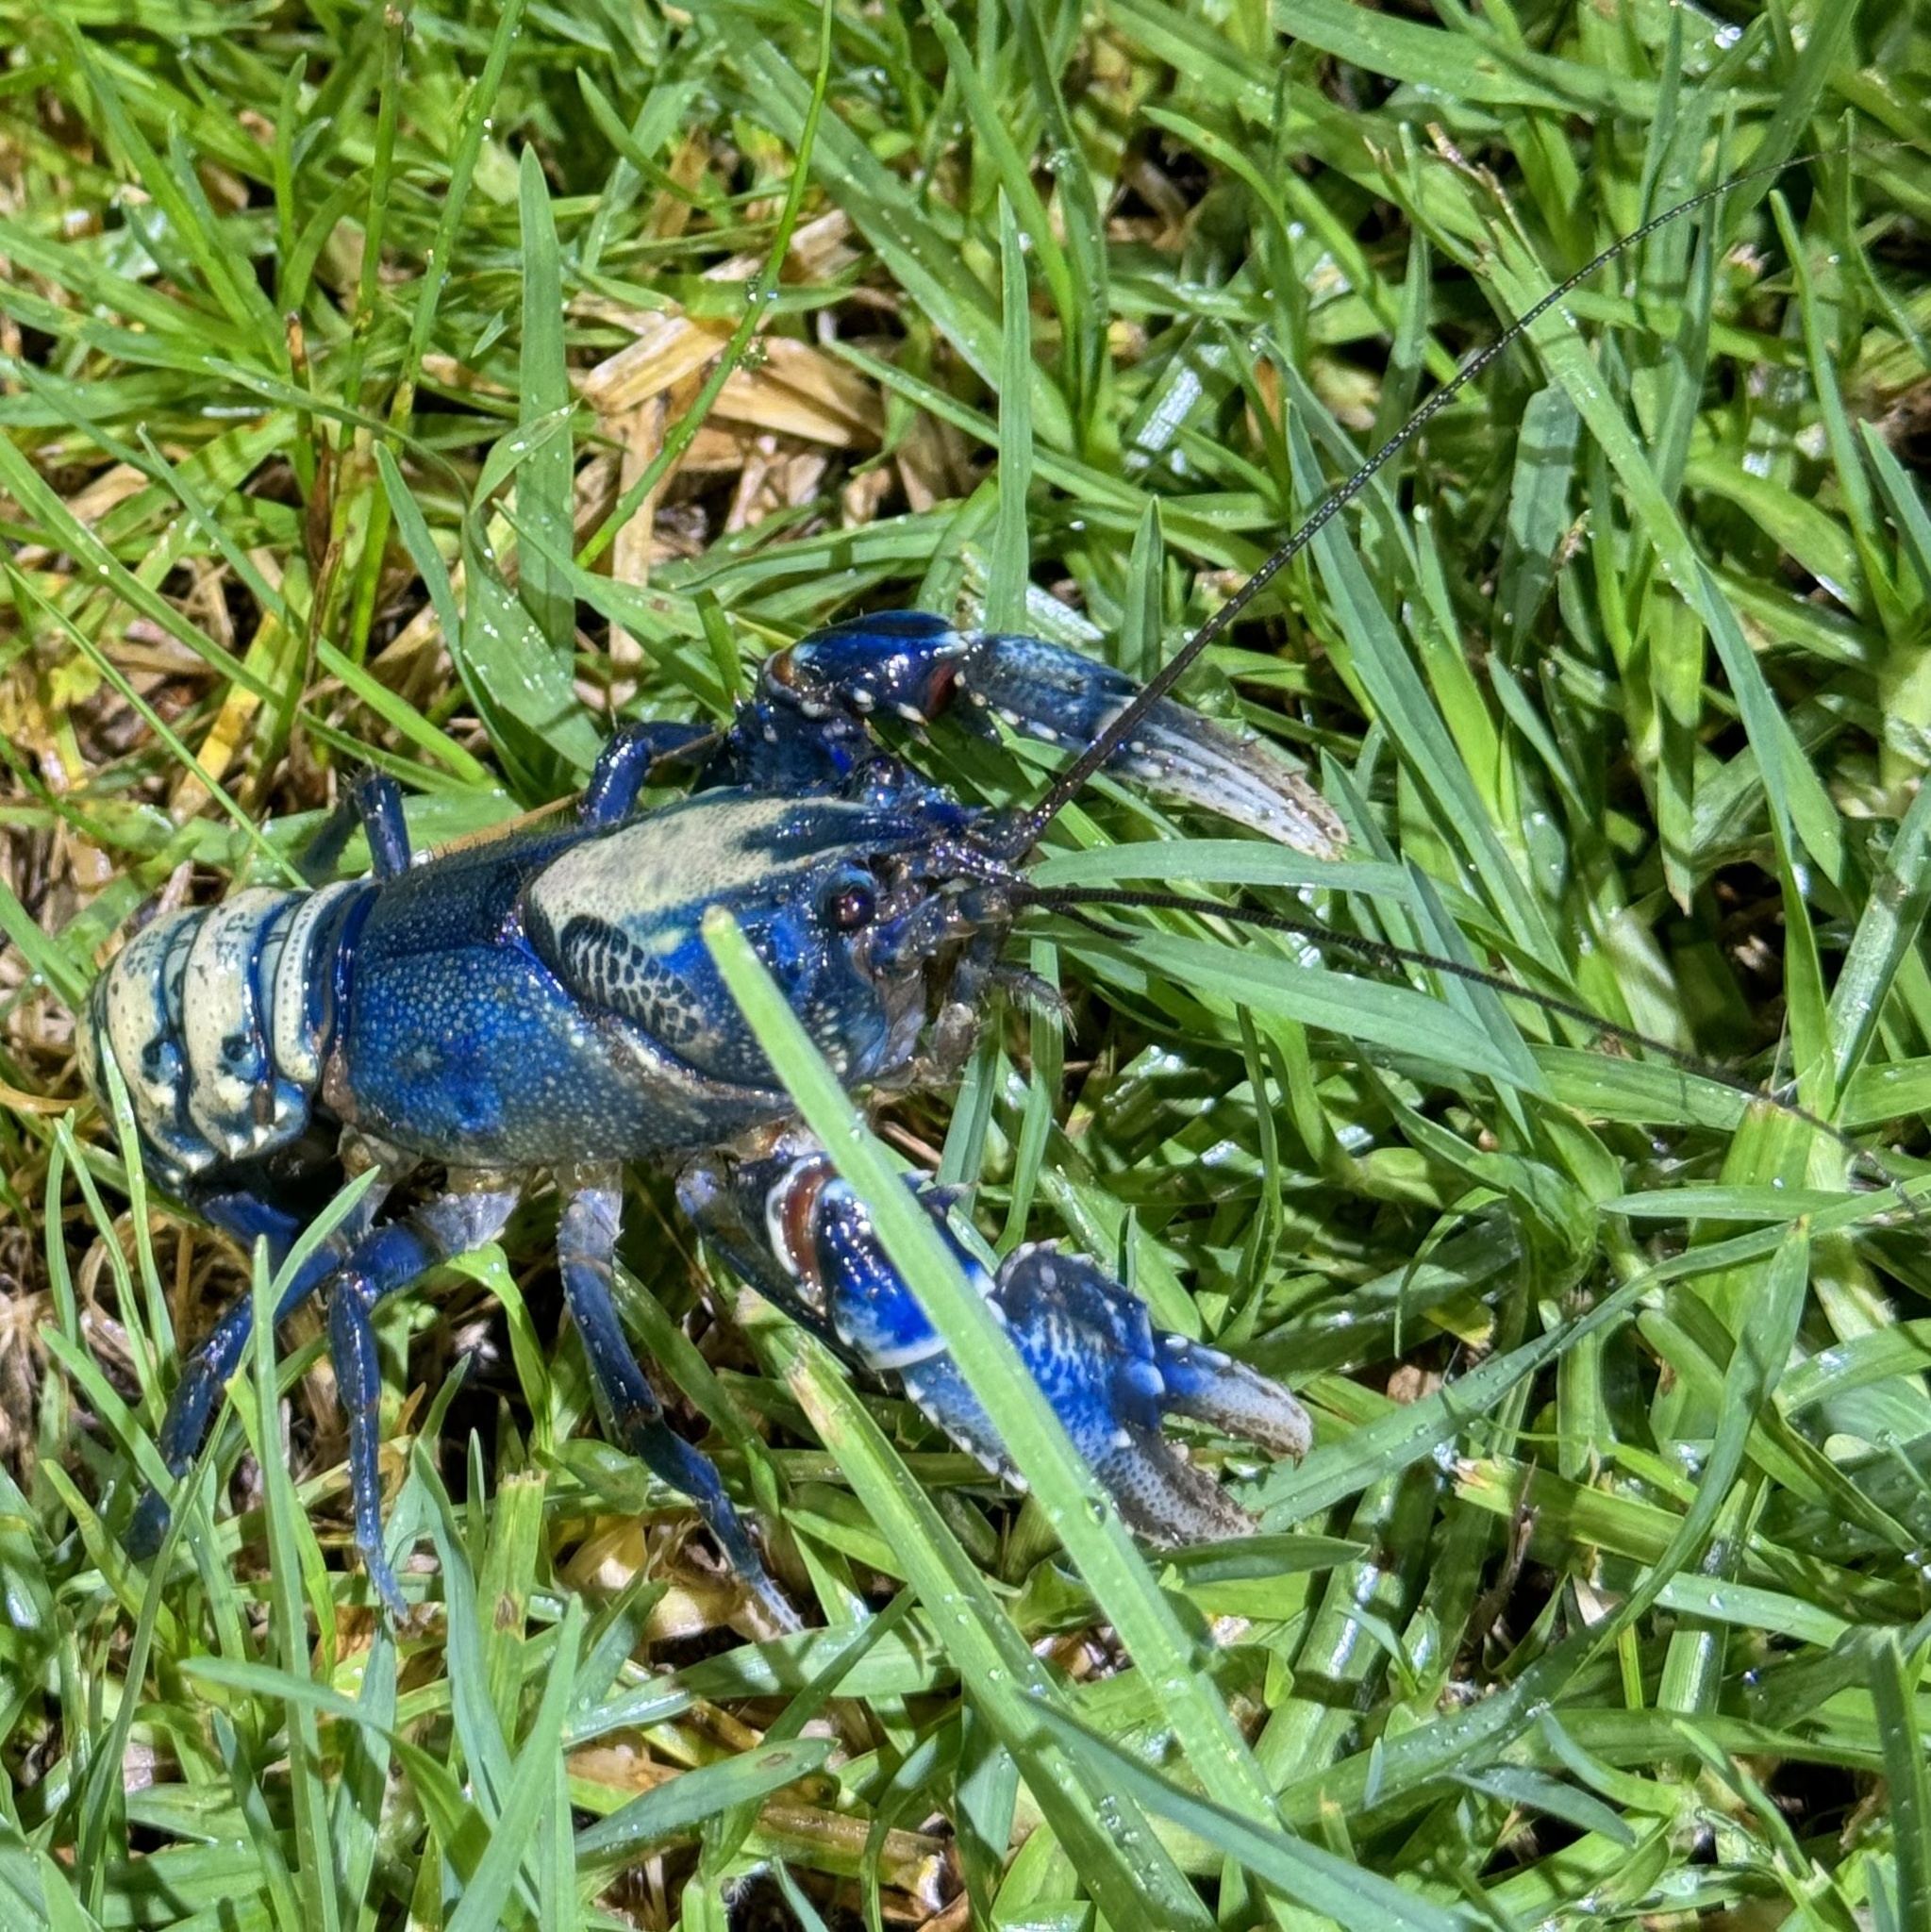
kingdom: Animalia
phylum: Arthropoda
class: Malacostraca
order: Decapoda
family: Parastacidae
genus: Euastacus
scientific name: Euastacus sulcatus
